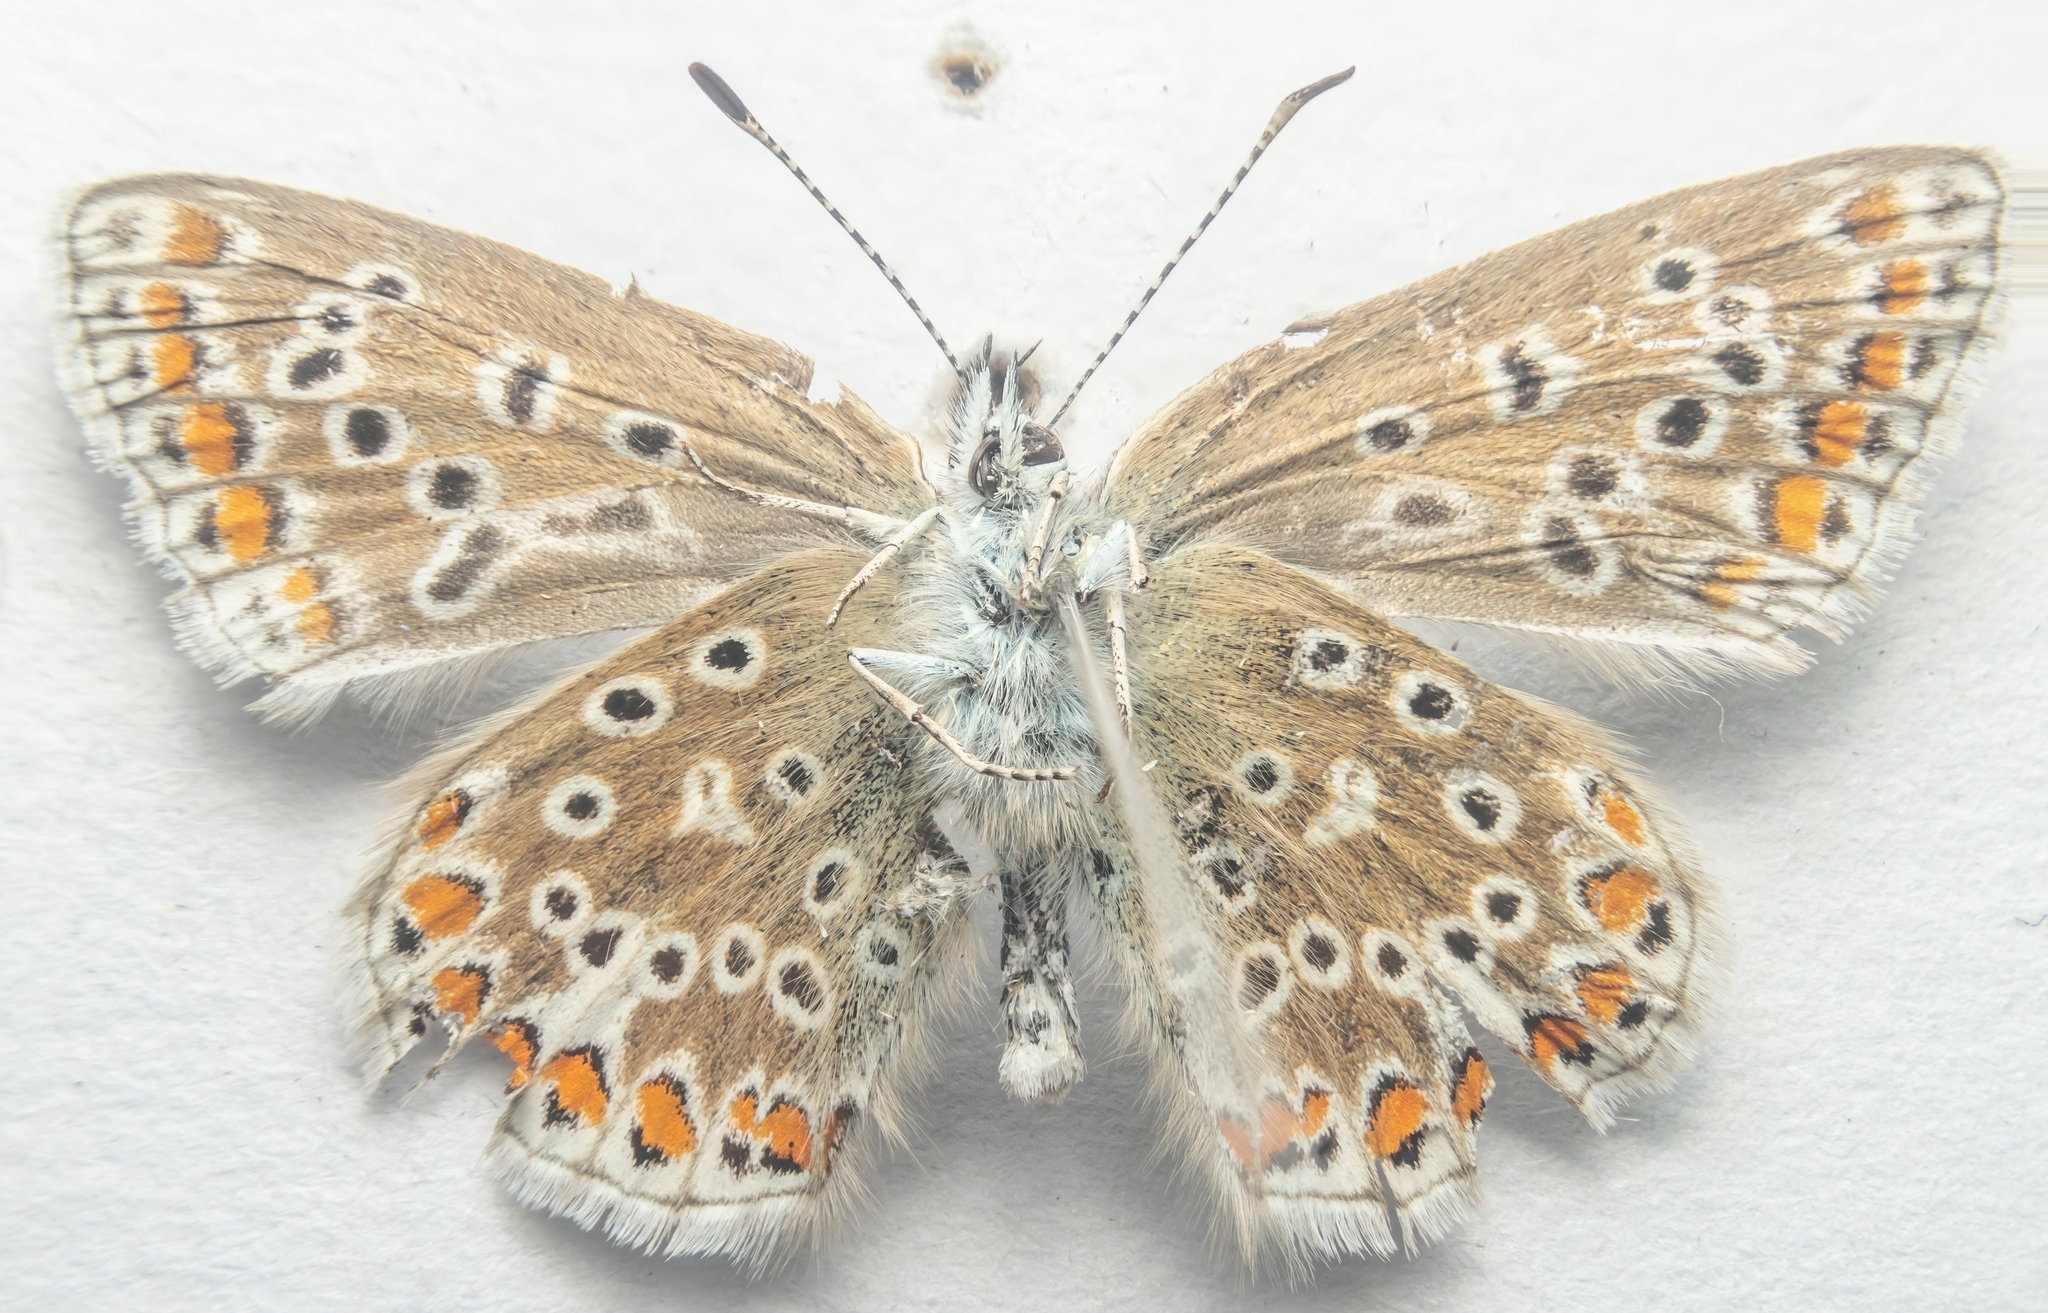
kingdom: Animalia
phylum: Arthropoda
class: Insecta
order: Lepidoptera
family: Lycaenidae
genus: Polyommatus
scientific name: Polyommatus icarus
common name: Common blue
